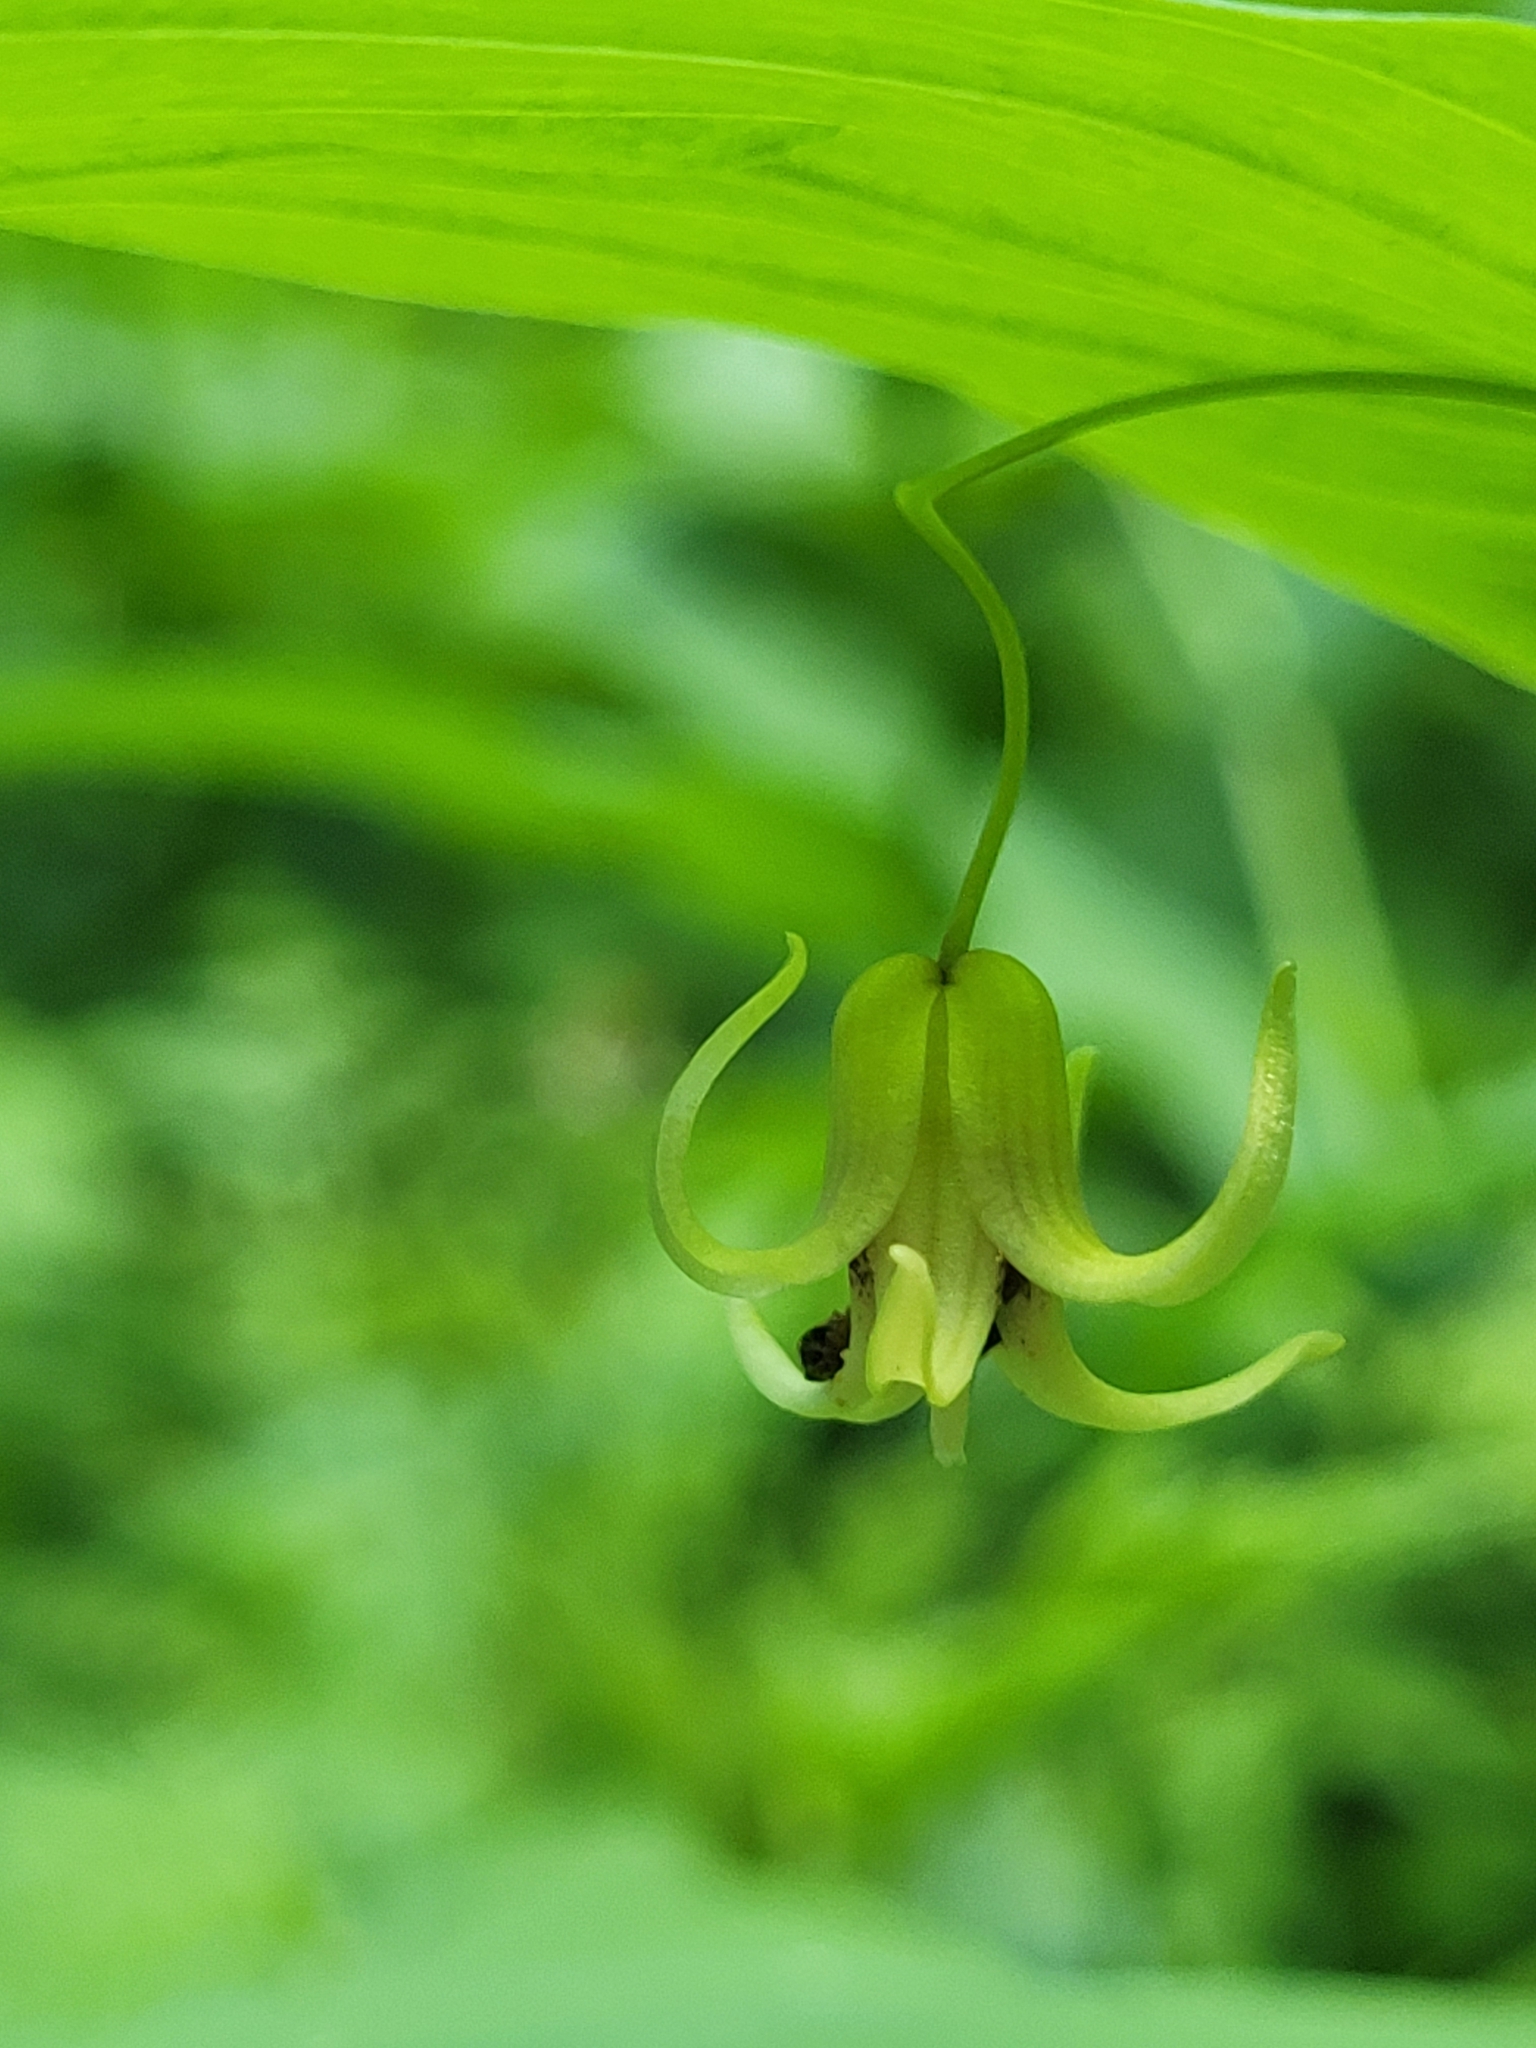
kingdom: Plantae
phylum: Tracheophyta
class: Liliopsida
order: Liliales
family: Liliaceae
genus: Streptopus
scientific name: Streptopus amplexifolius
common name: Clasp twisted stalk
